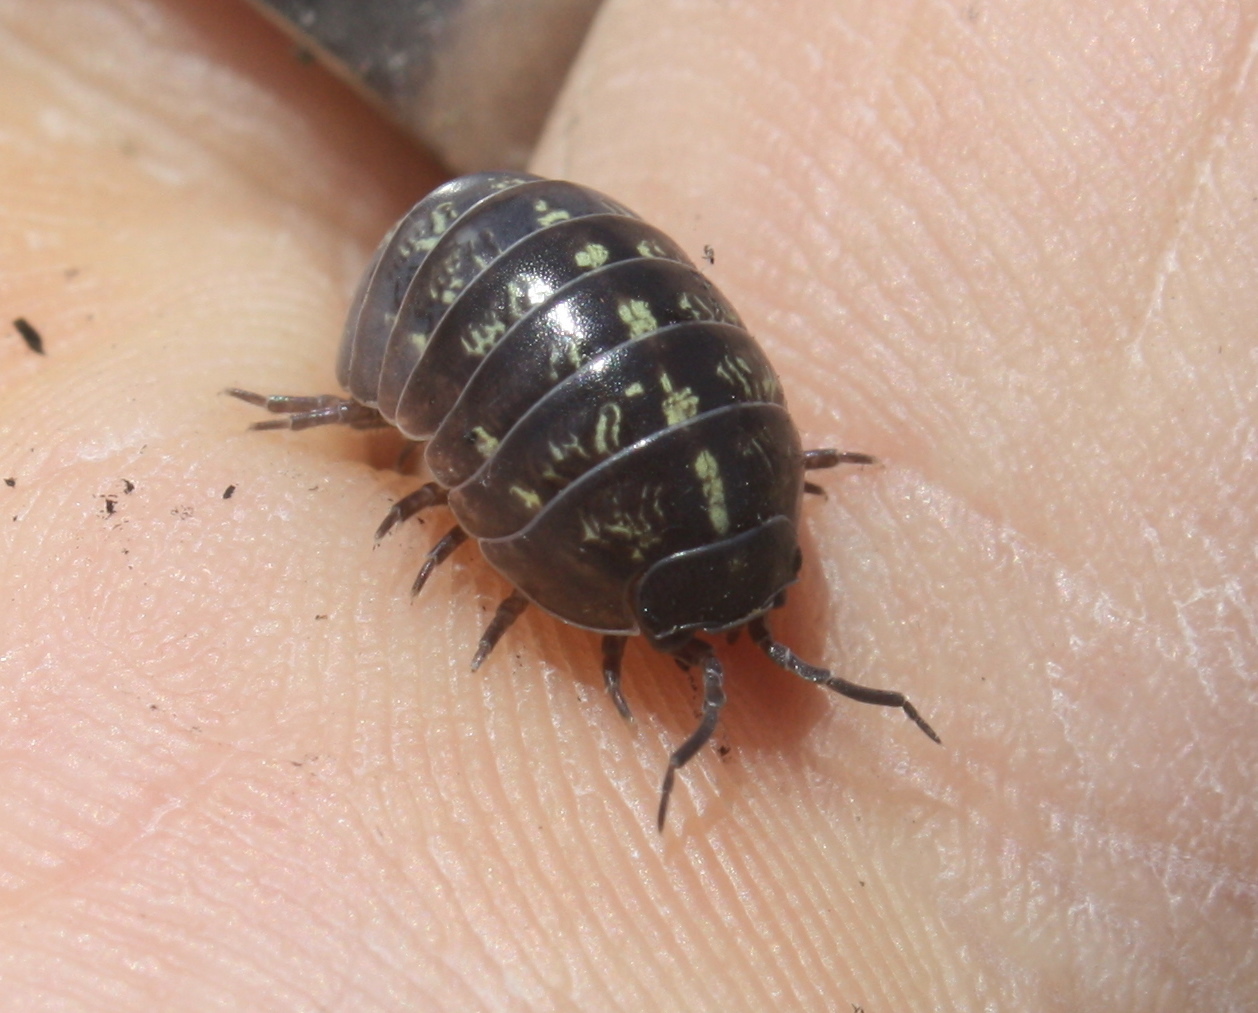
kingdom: Animalia
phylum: Arthropoda
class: Malacostraca
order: Isopoda
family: Armadillidiidae
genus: Armadillidium
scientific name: Armadillidium vulgare
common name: Common pill woodlouse
